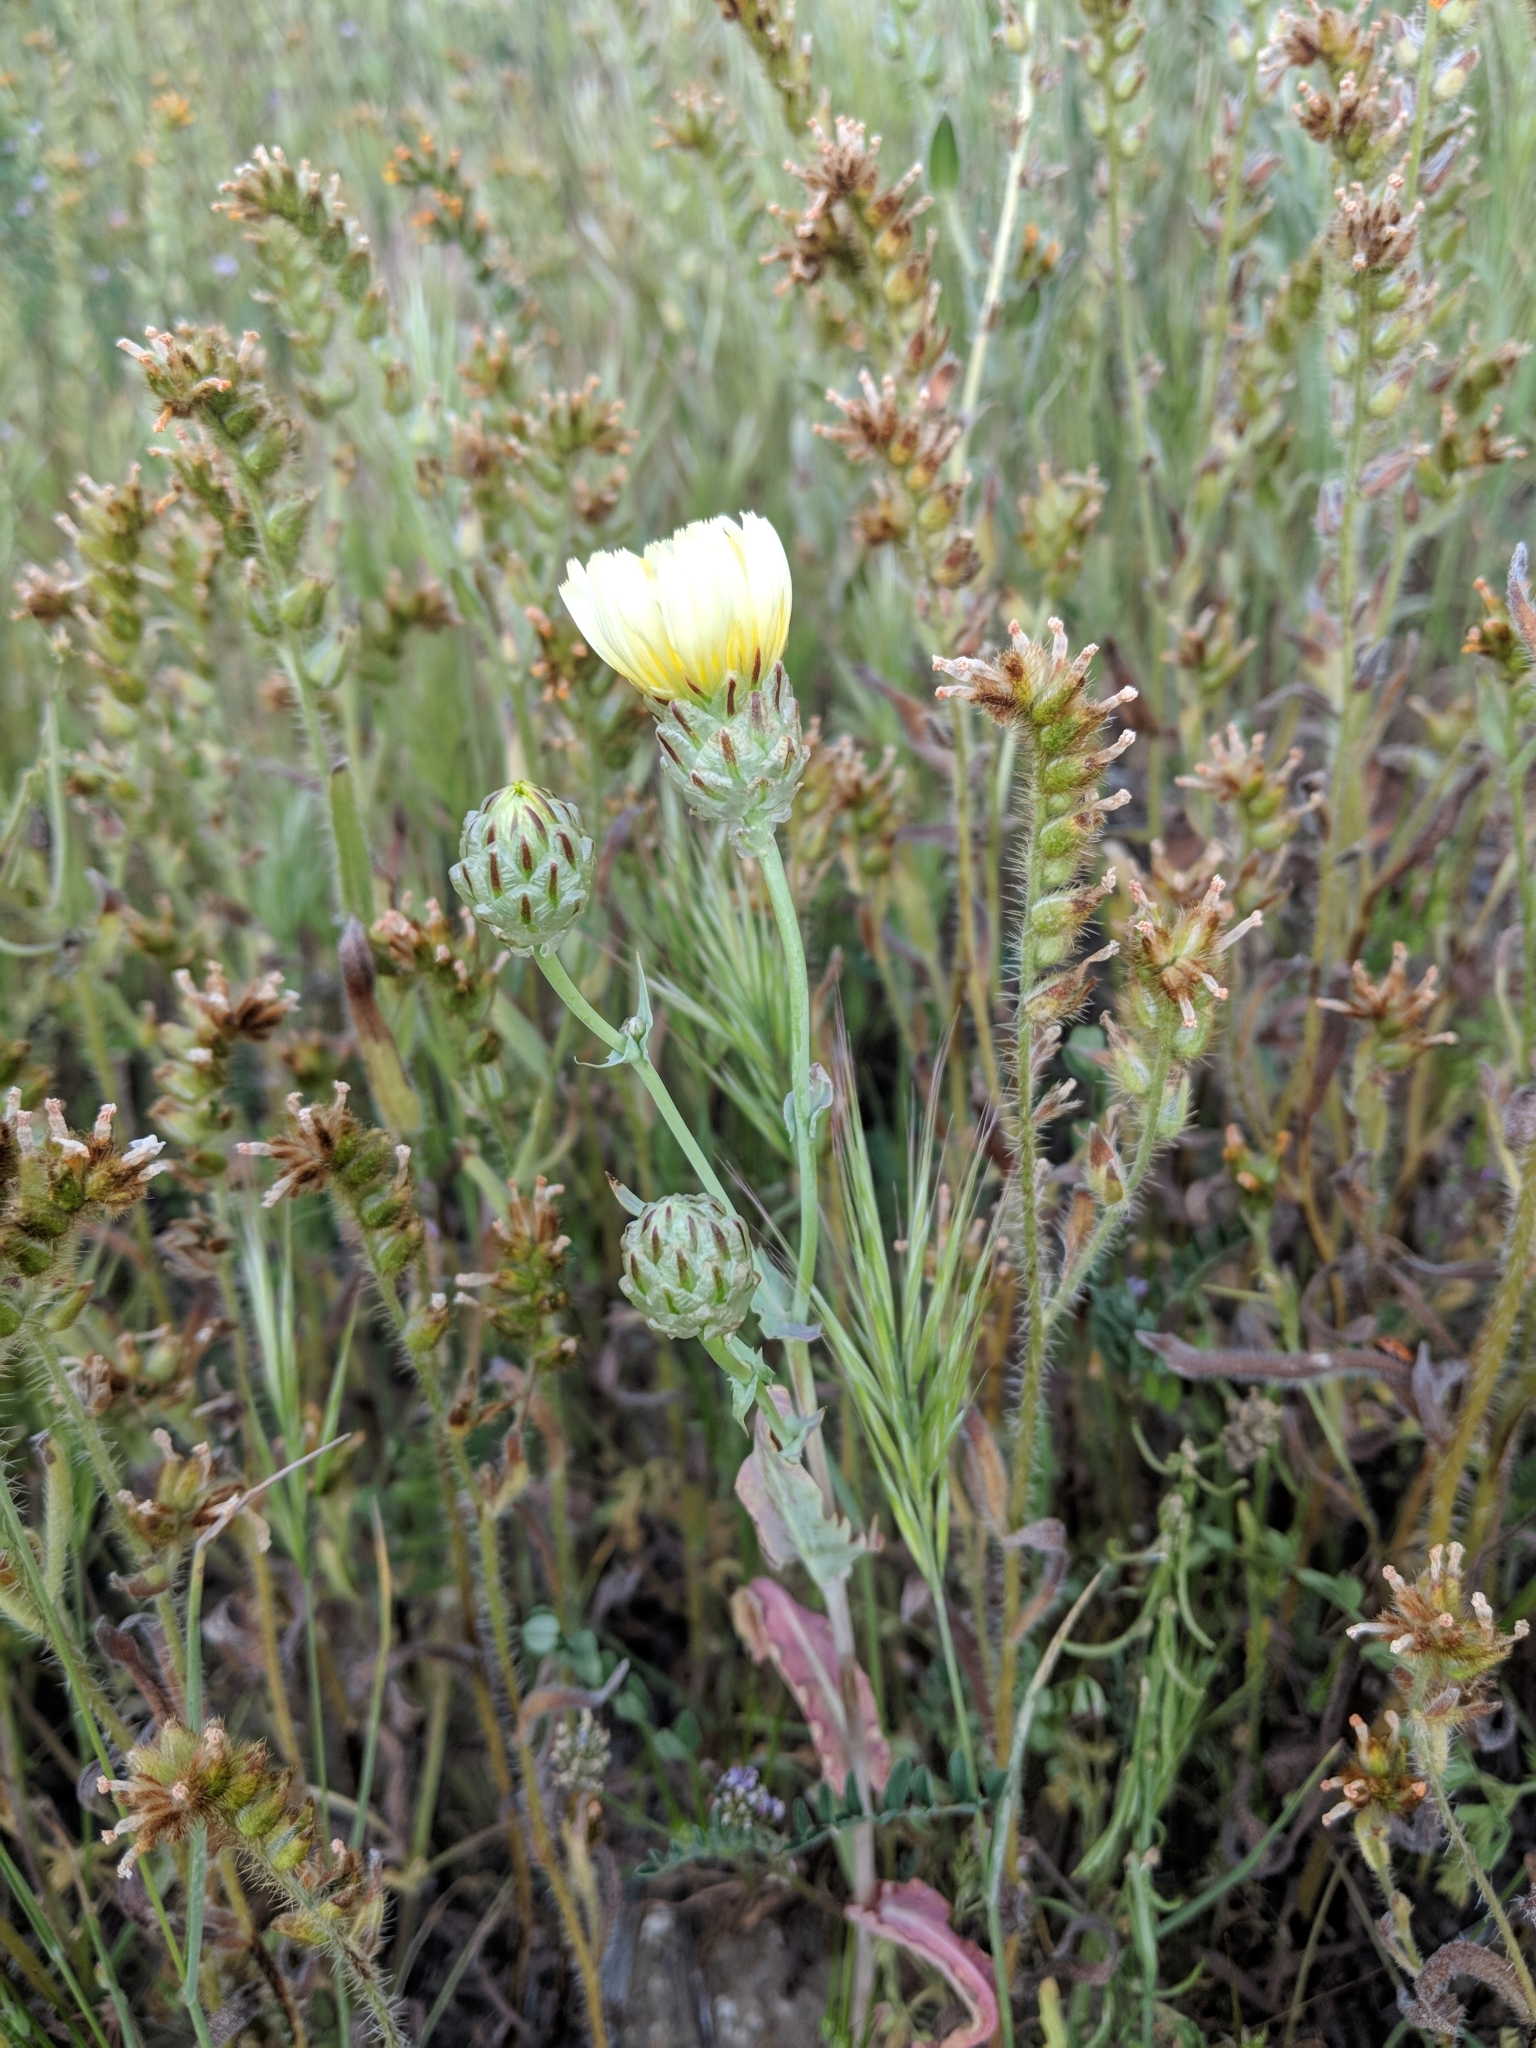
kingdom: Plantae
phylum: Tracheophyta
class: Magnoliopsida
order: Asterales
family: Asteraceae
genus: Malacothrix
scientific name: Malacothrix coulteri
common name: Snake's-head
